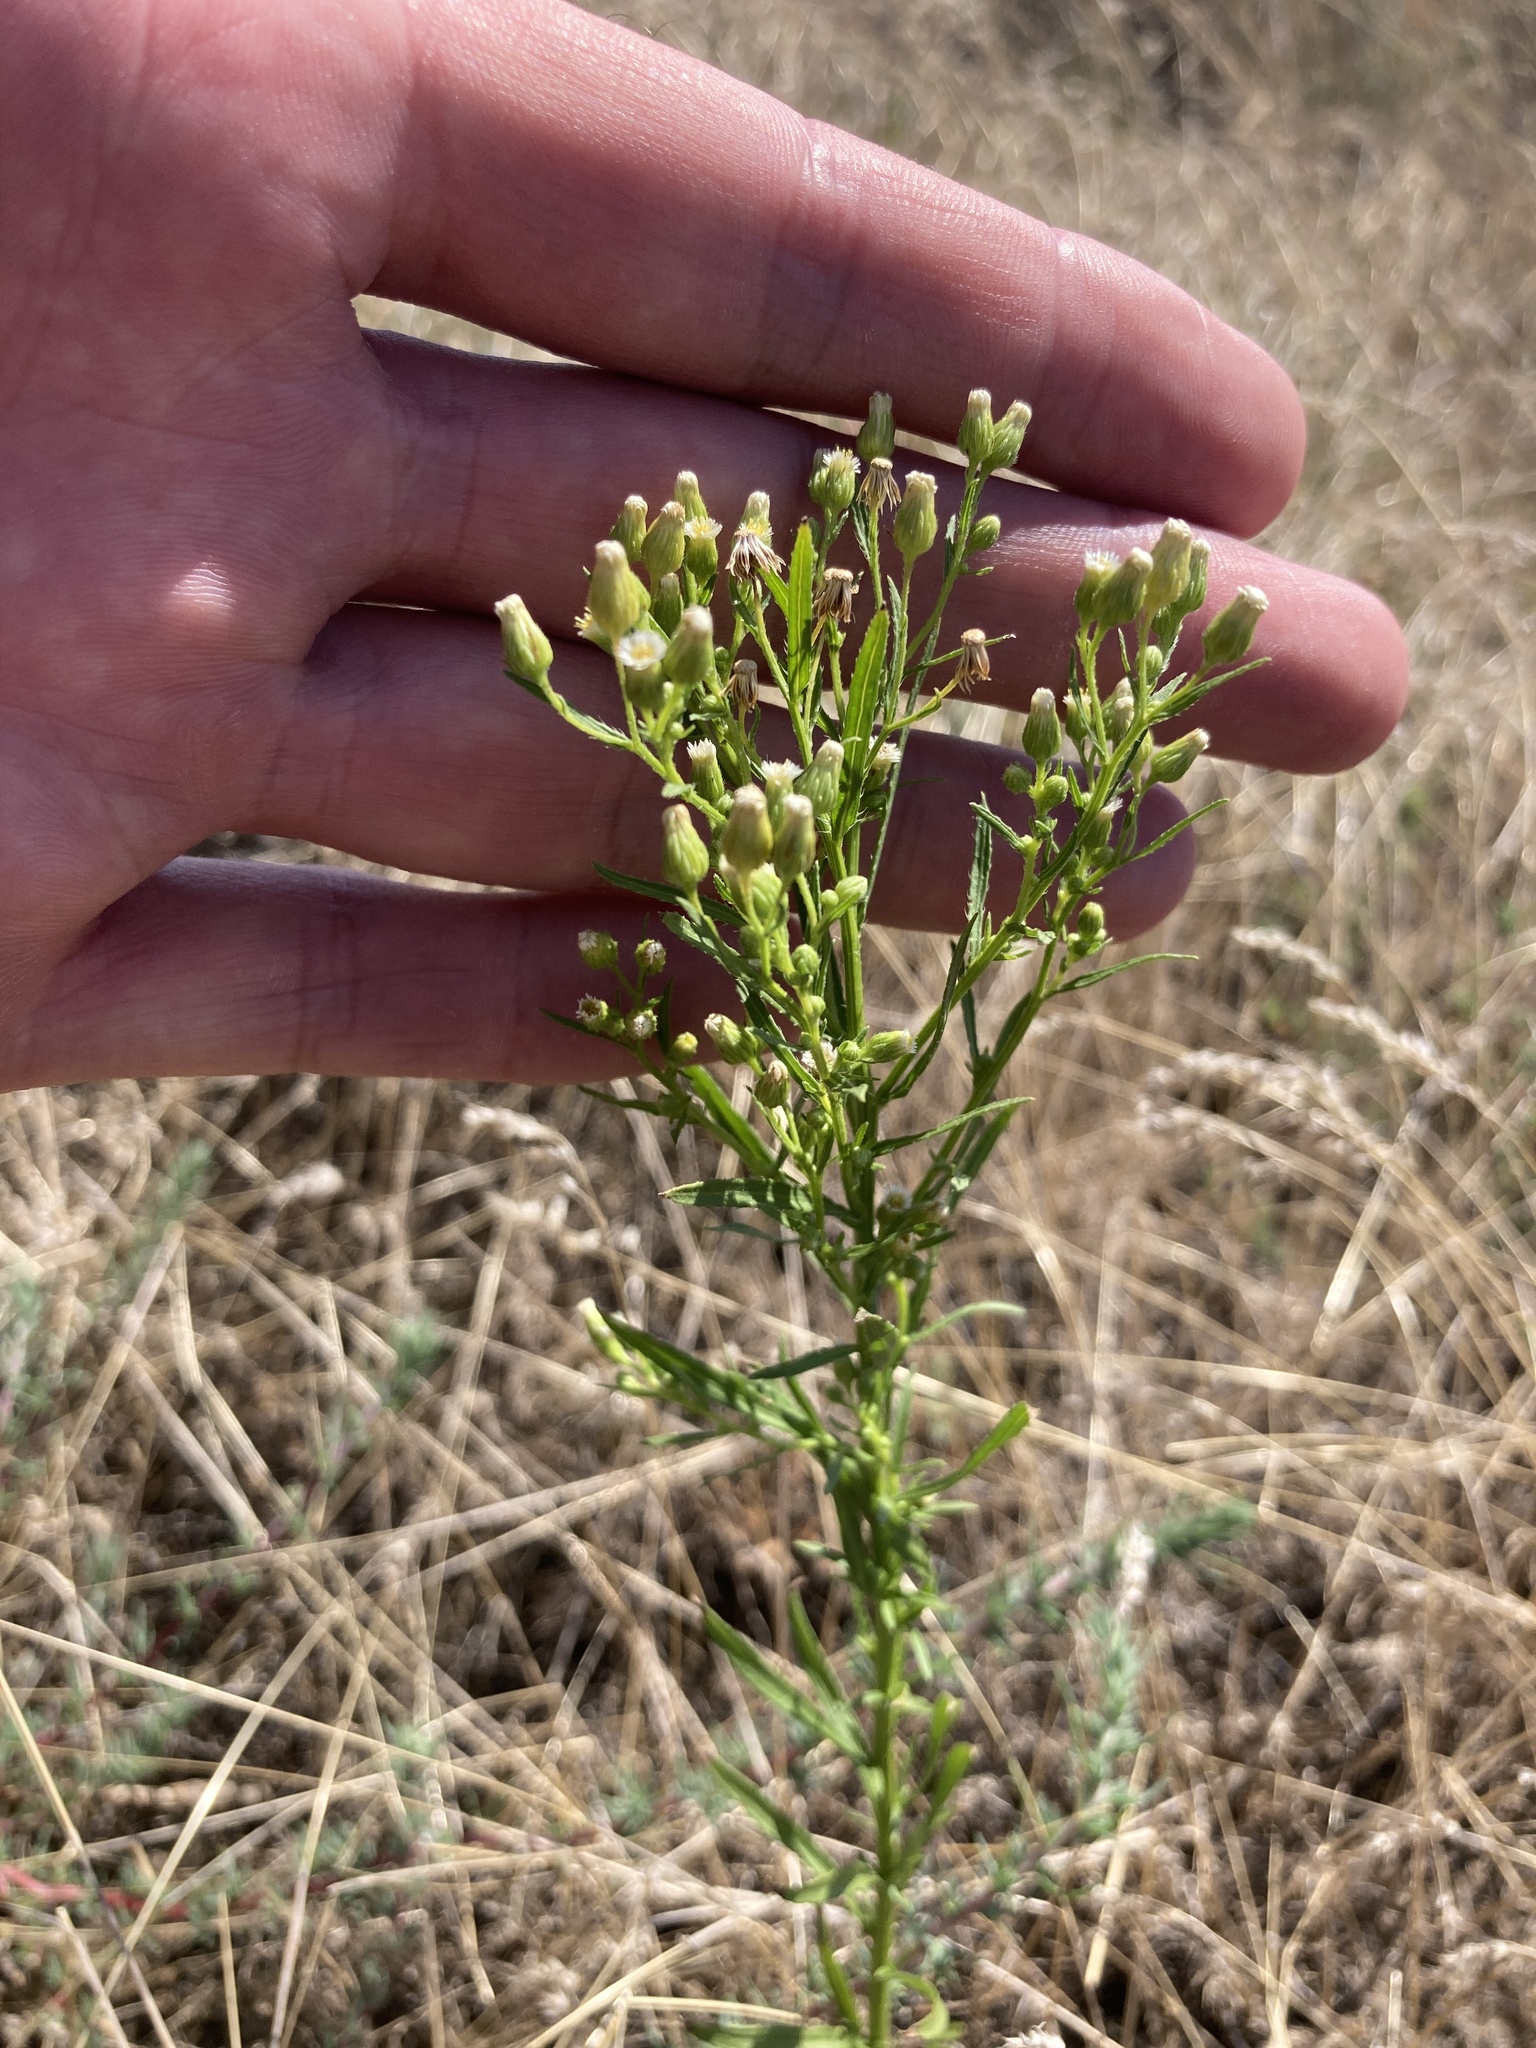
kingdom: Plantae
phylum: Tracheophyta
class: Magnoliopsida
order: Asterales
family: Asteraceae
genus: Erigeron
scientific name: Erigeron canadensis
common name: Canadian fleabane
